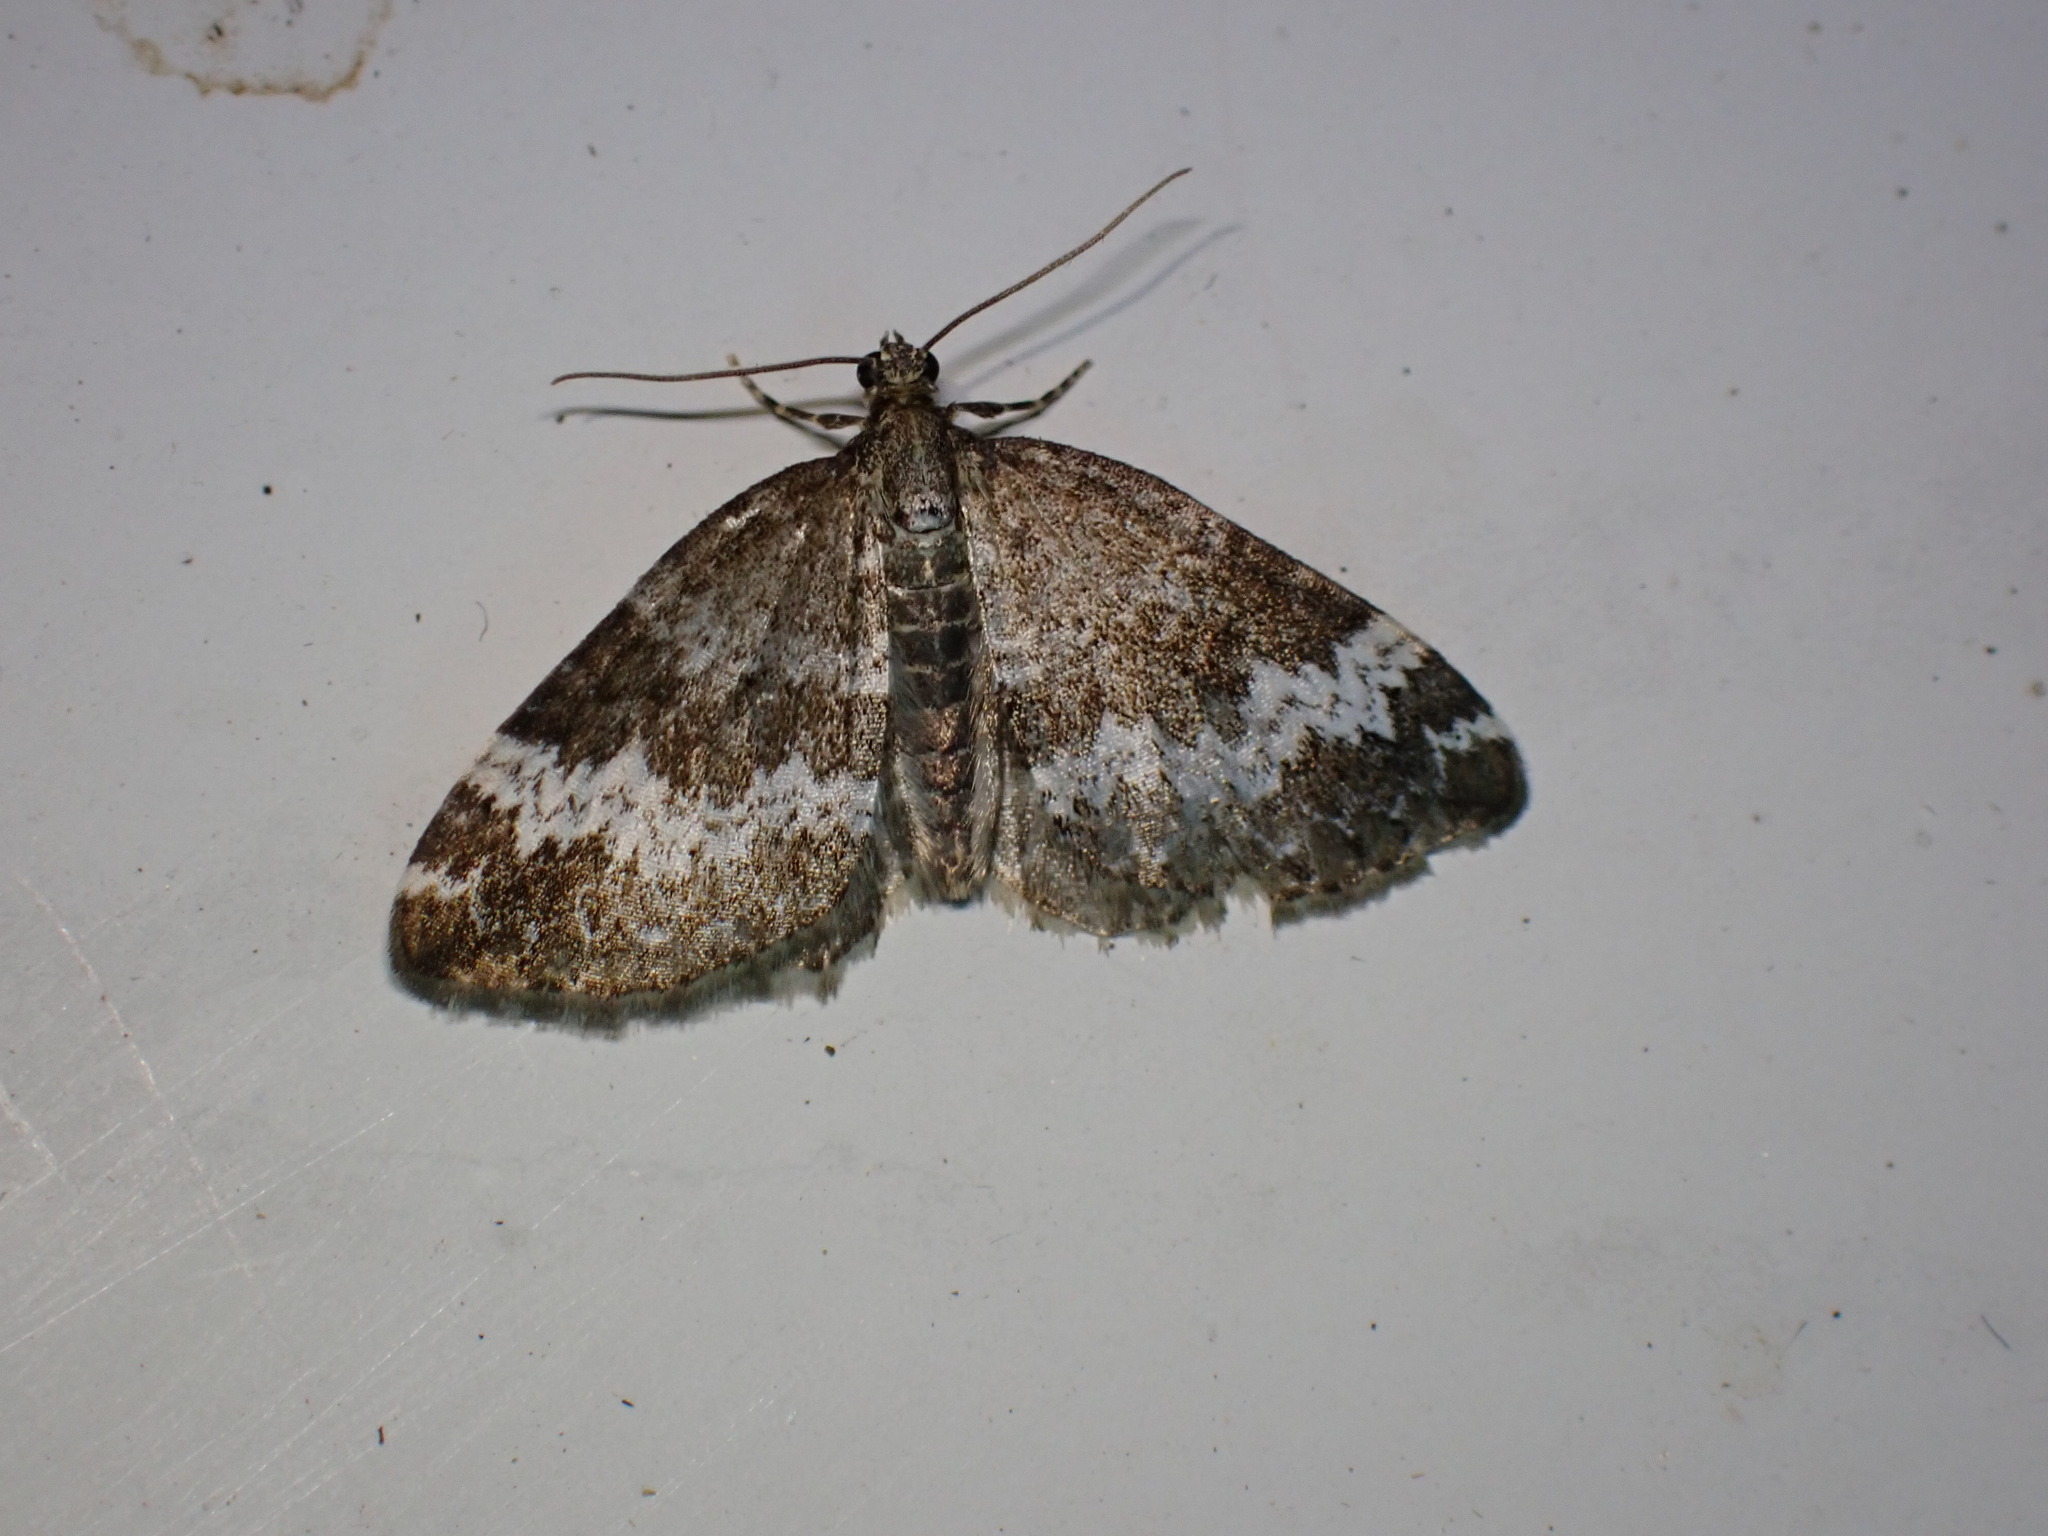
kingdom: Animalia
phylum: Arthropoda
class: Insecta
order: Lepidoptera
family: Geometridae
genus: Perizoma
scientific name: Perizoma alchemillata
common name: Small rivulet
